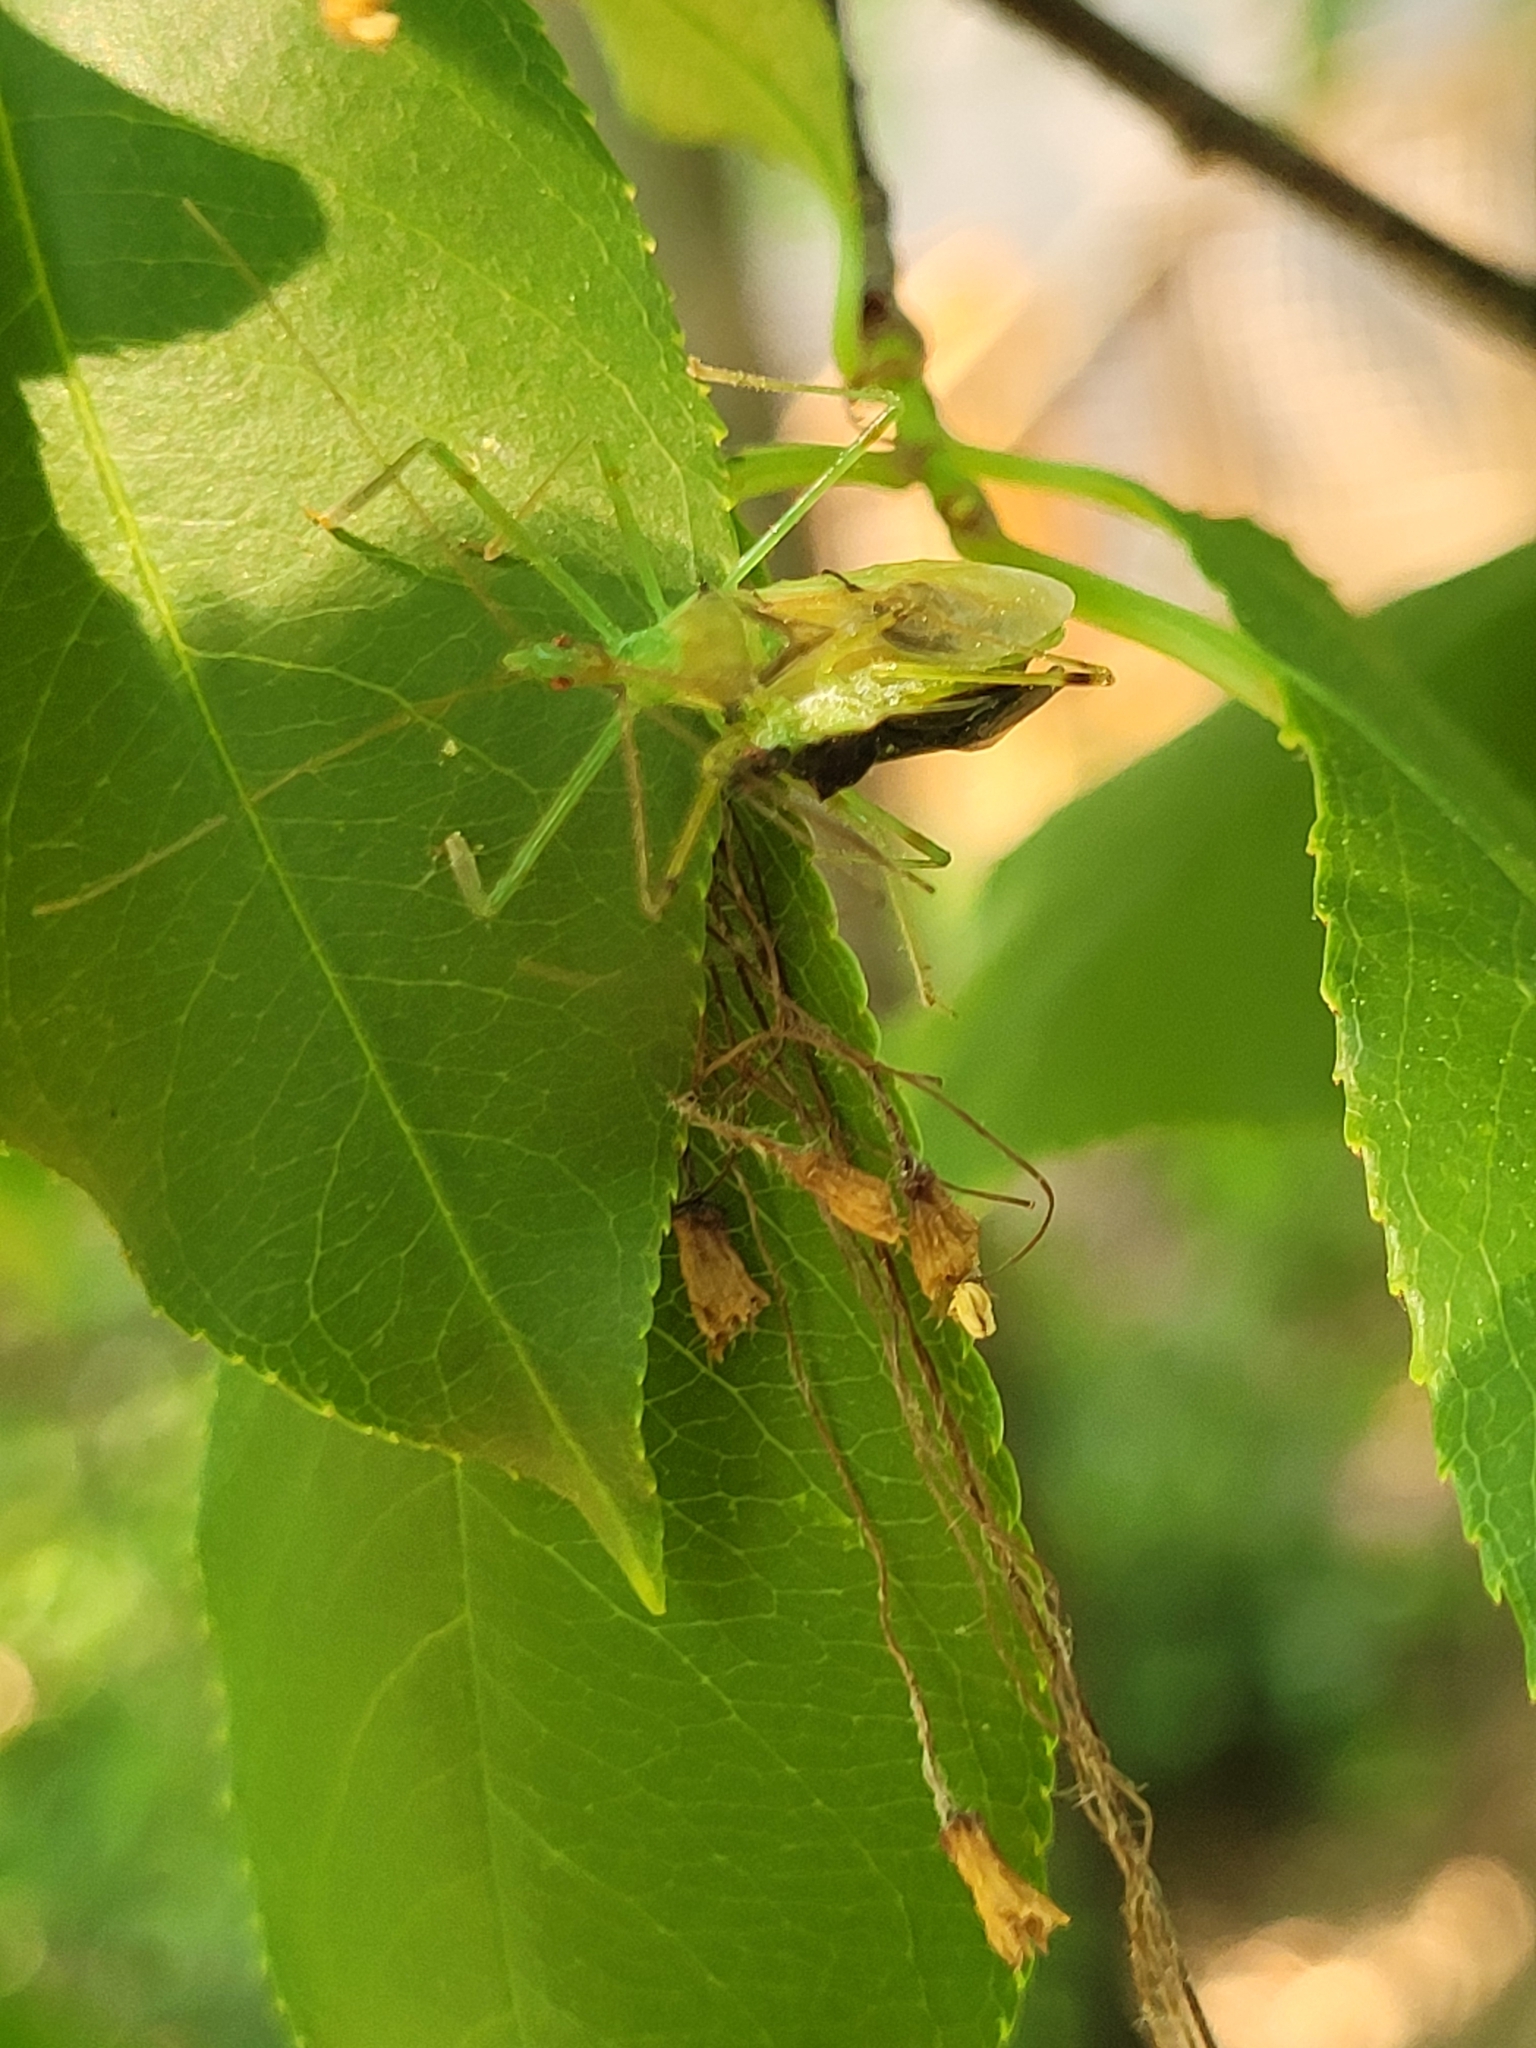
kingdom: Animalia
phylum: Arthropoda
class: Insecta
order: Hemiptera
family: Reduviidae
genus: Zelus
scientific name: Zelus luridus
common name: Pale green assassin bug
